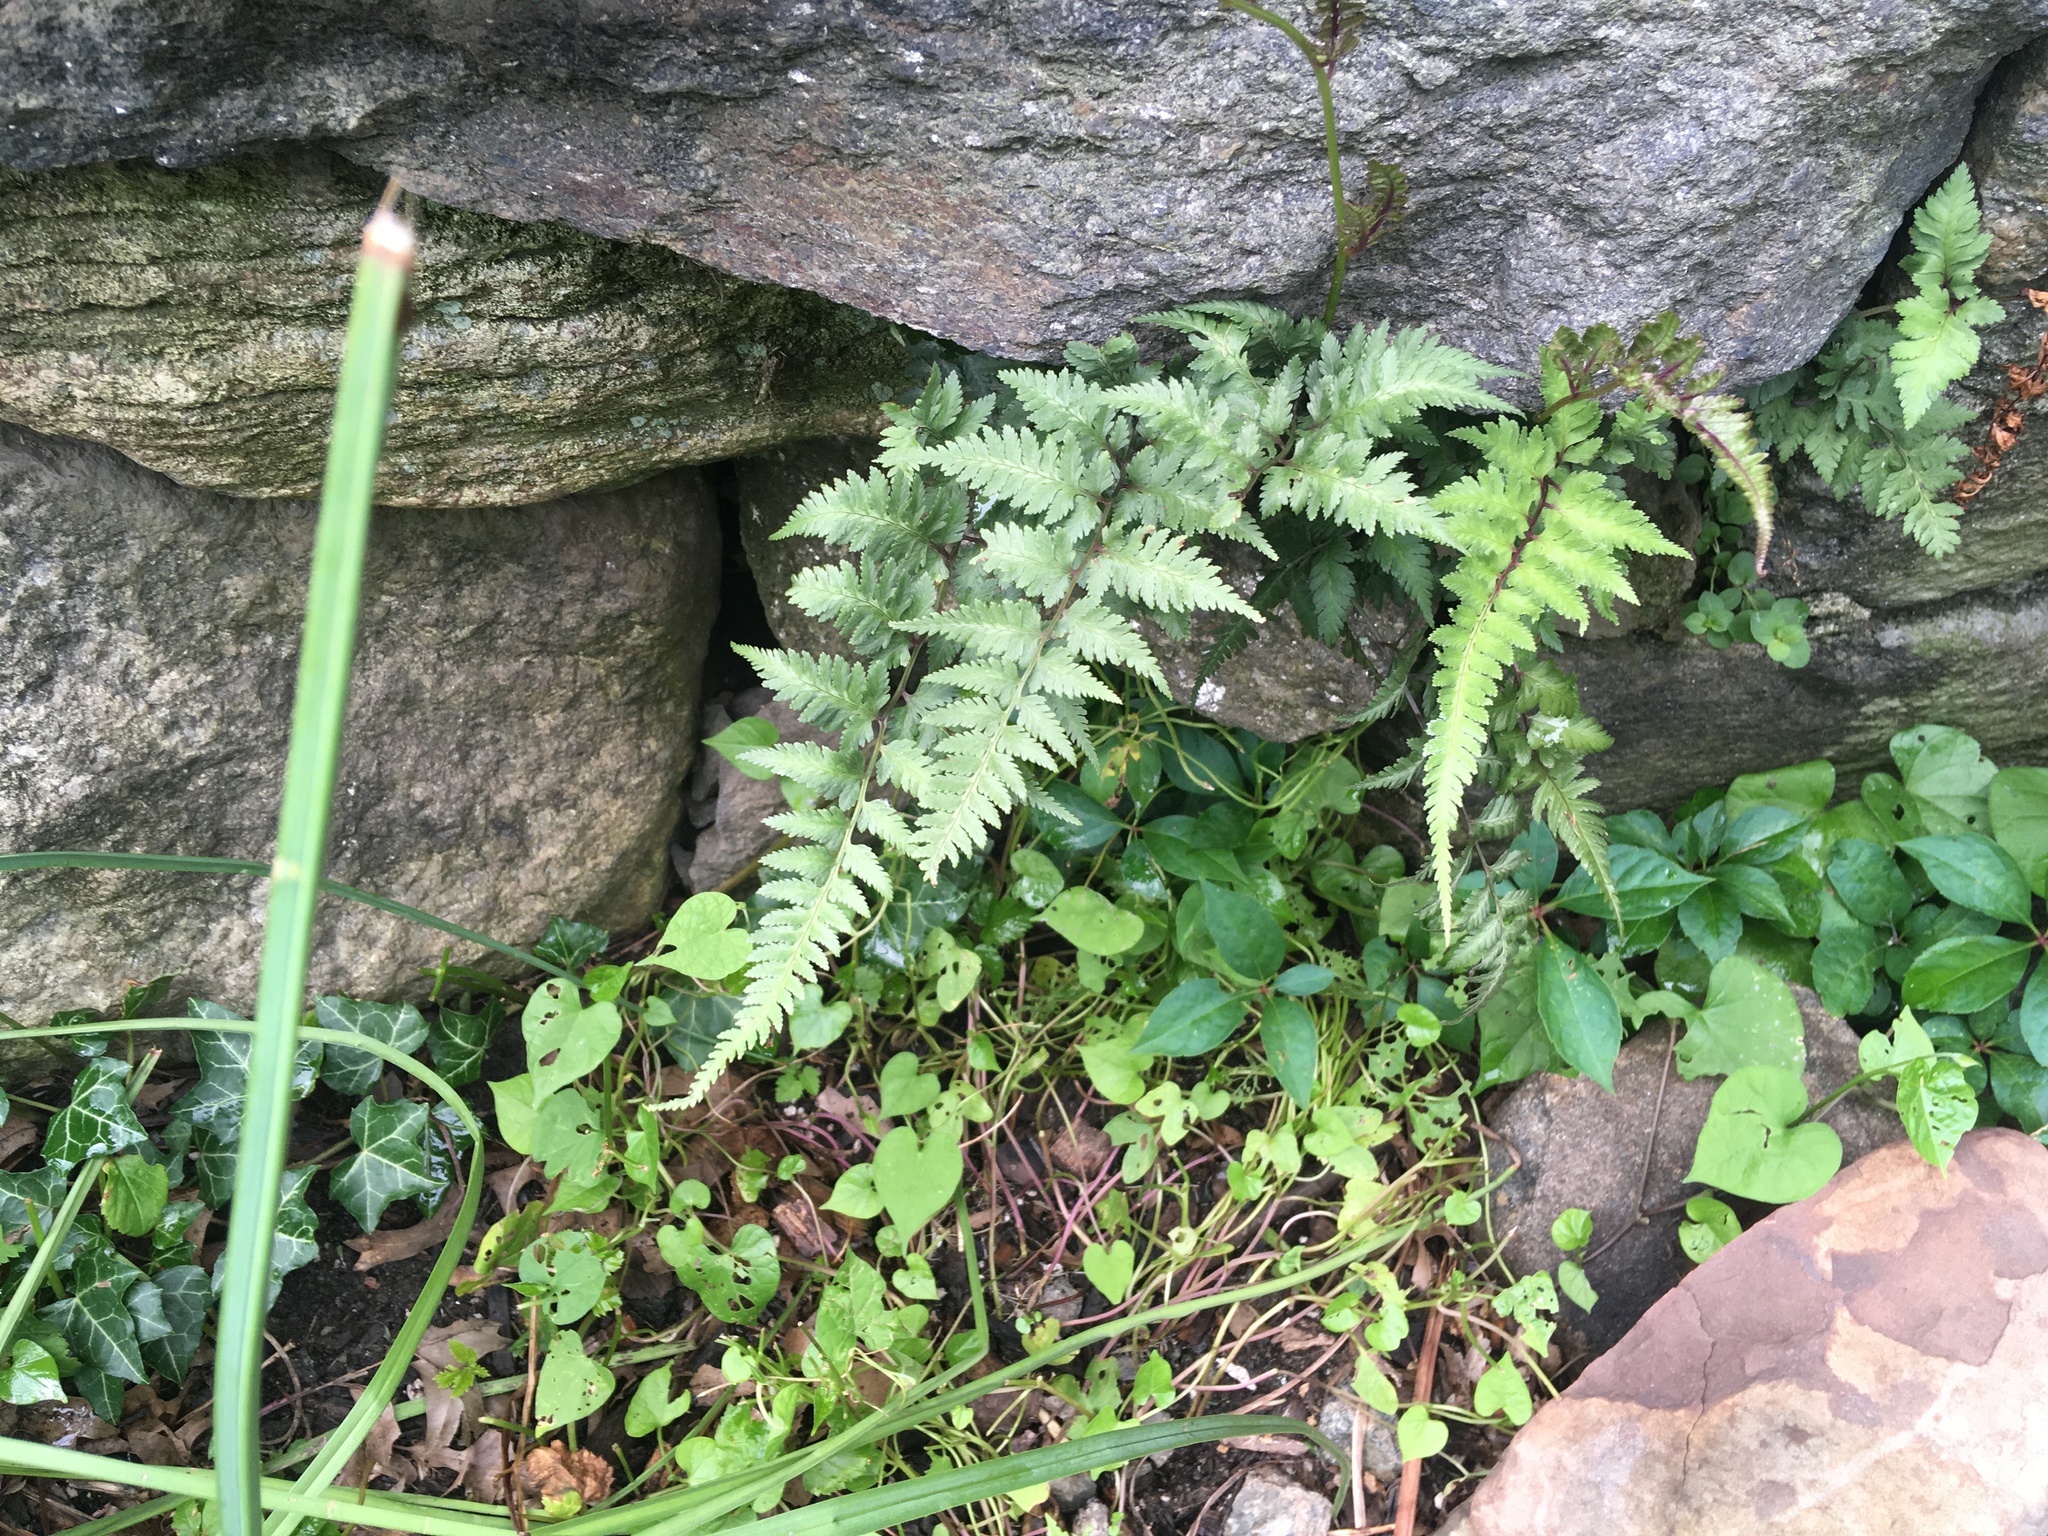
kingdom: Plantae
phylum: Tracheophyta
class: Polypodiopsida
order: Polypodiales
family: Athyriaceae
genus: Anisocampium
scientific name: Anisocampium niponicum
